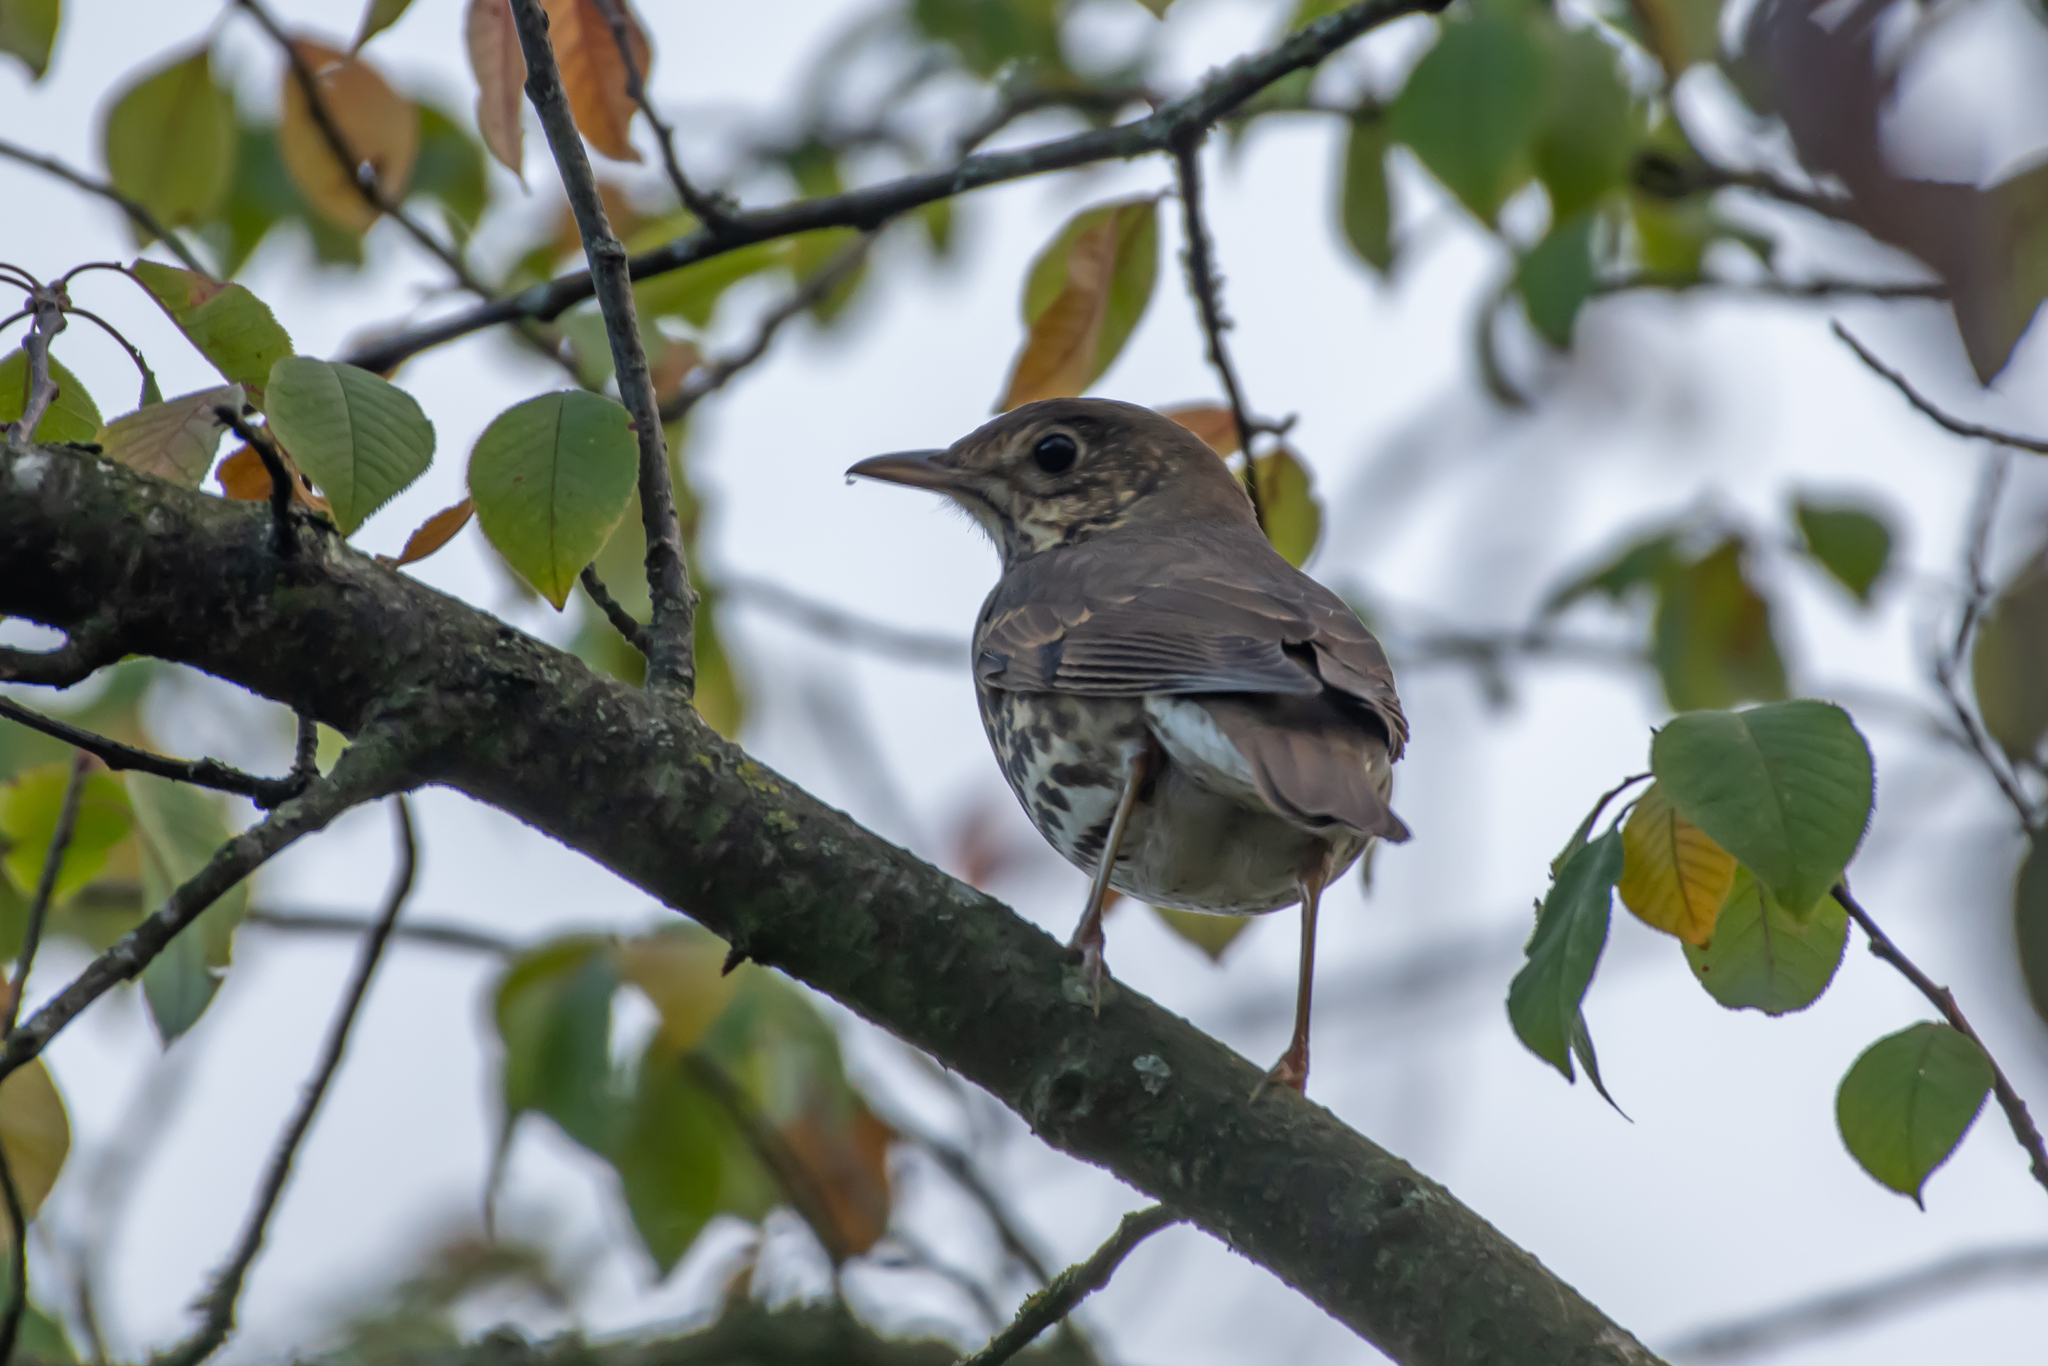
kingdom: Animalia
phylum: Chordata
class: Aves
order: Passeriformes
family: Turdidae
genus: Turdus
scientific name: Turdus philomelos
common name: Song thrush
